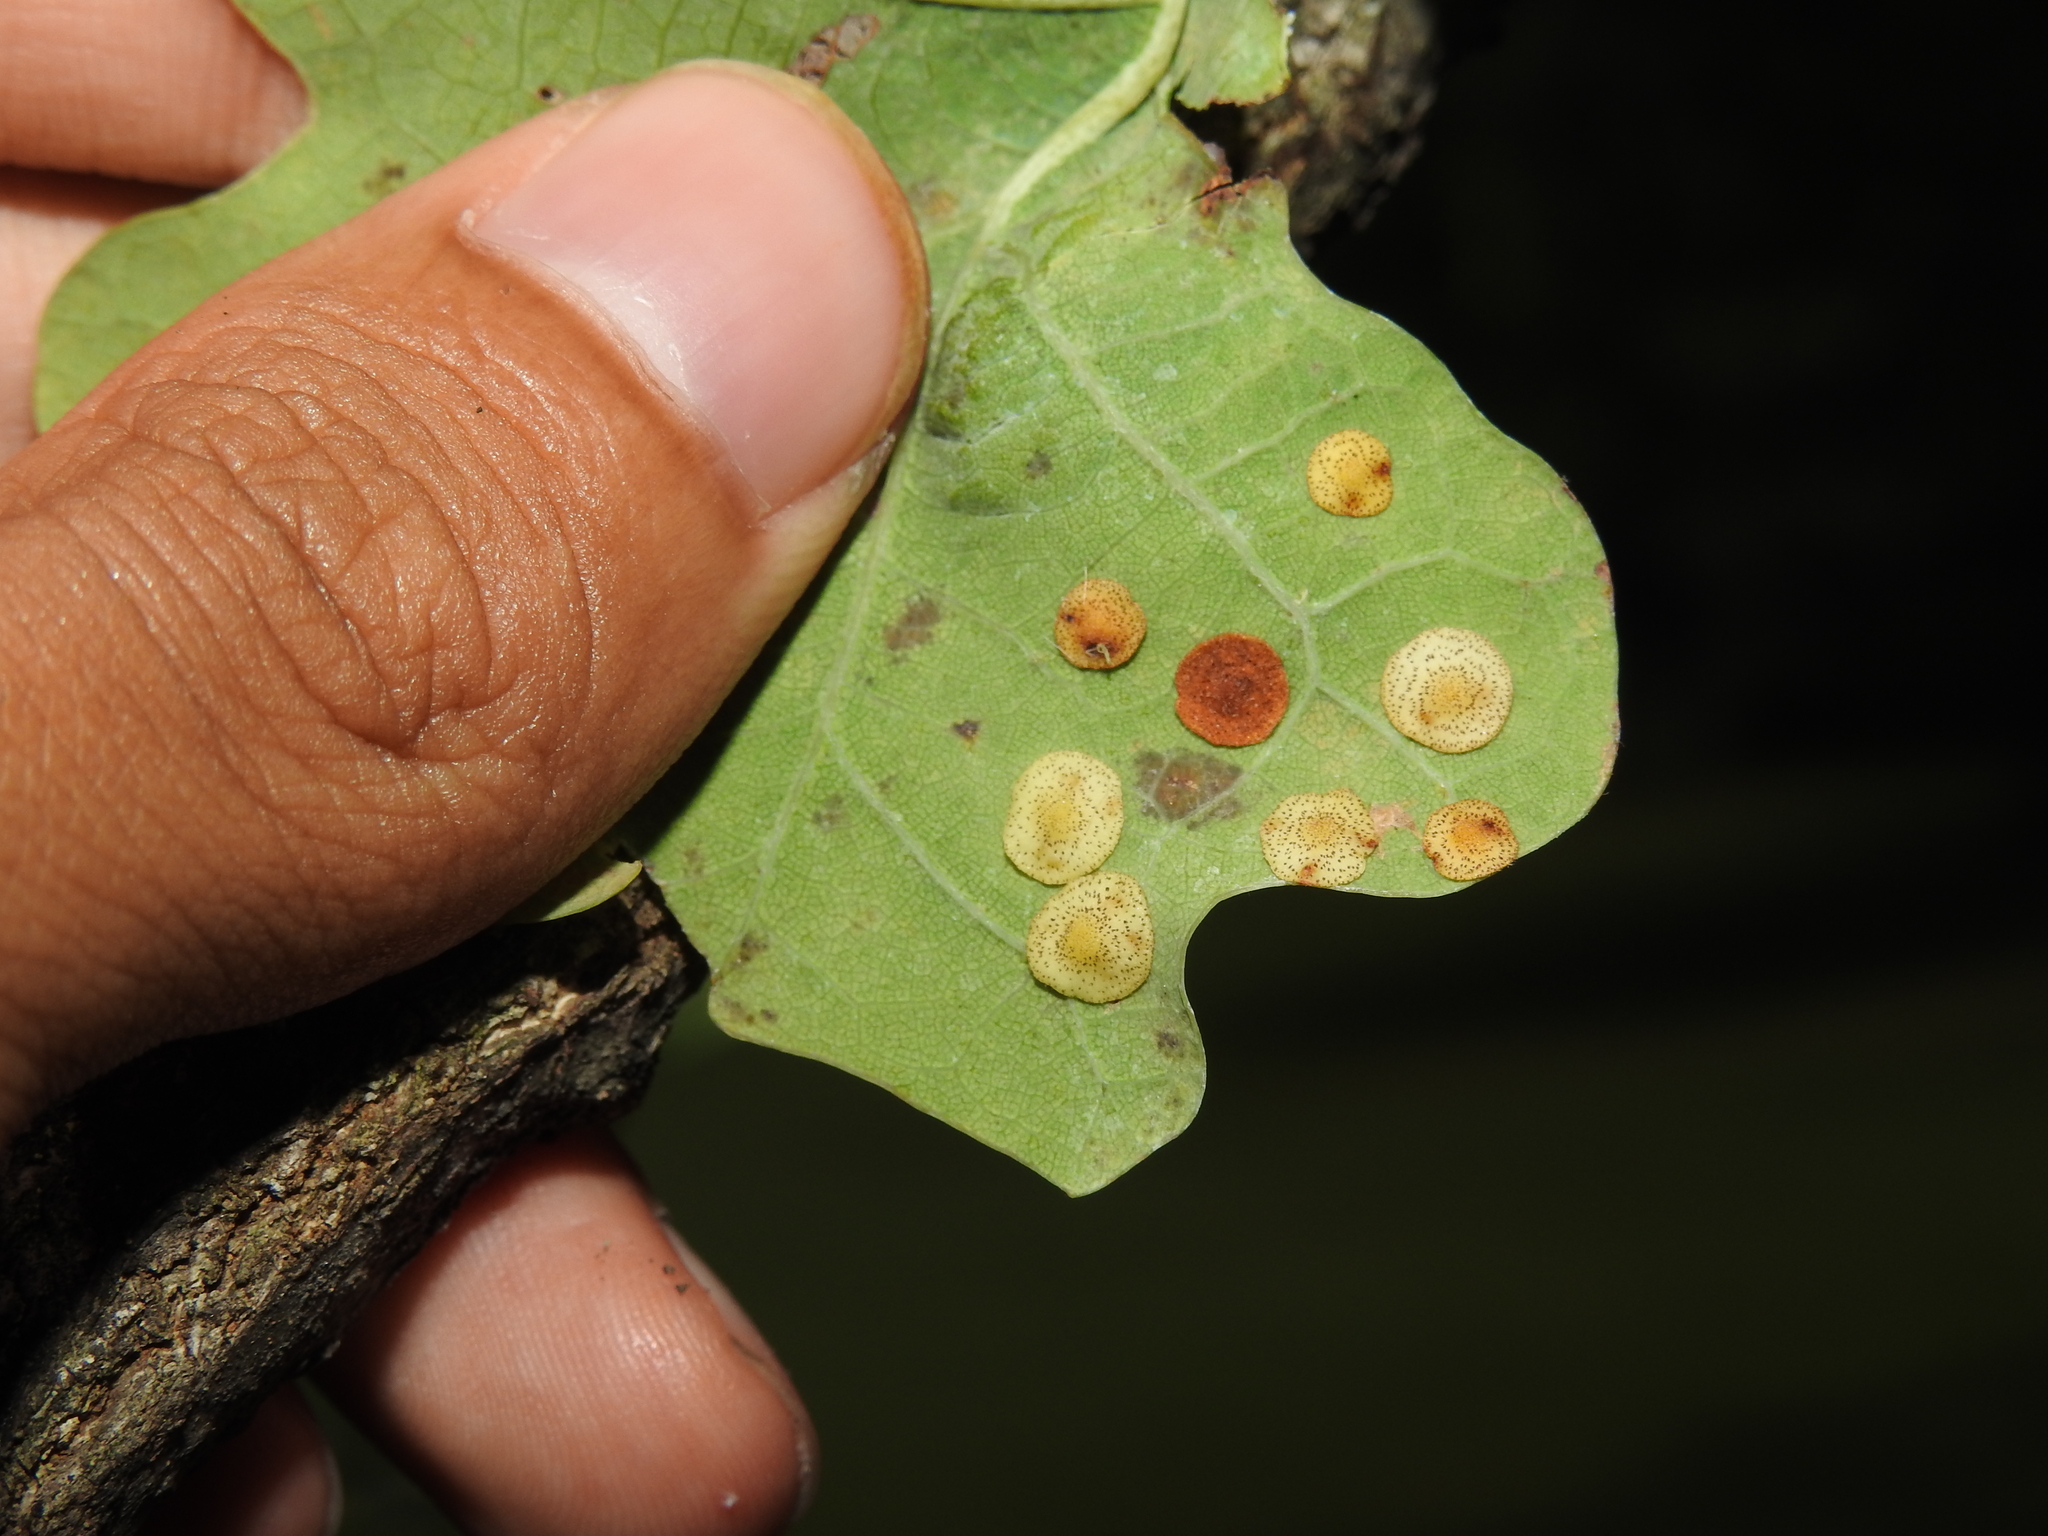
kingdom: Animalia
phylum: Arthropoda
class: Insecta
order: Hymenoptera
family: Cynipidae
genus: Neuroterus
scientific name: Neuroterus quercusbaccarum
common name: Common spangle gall
